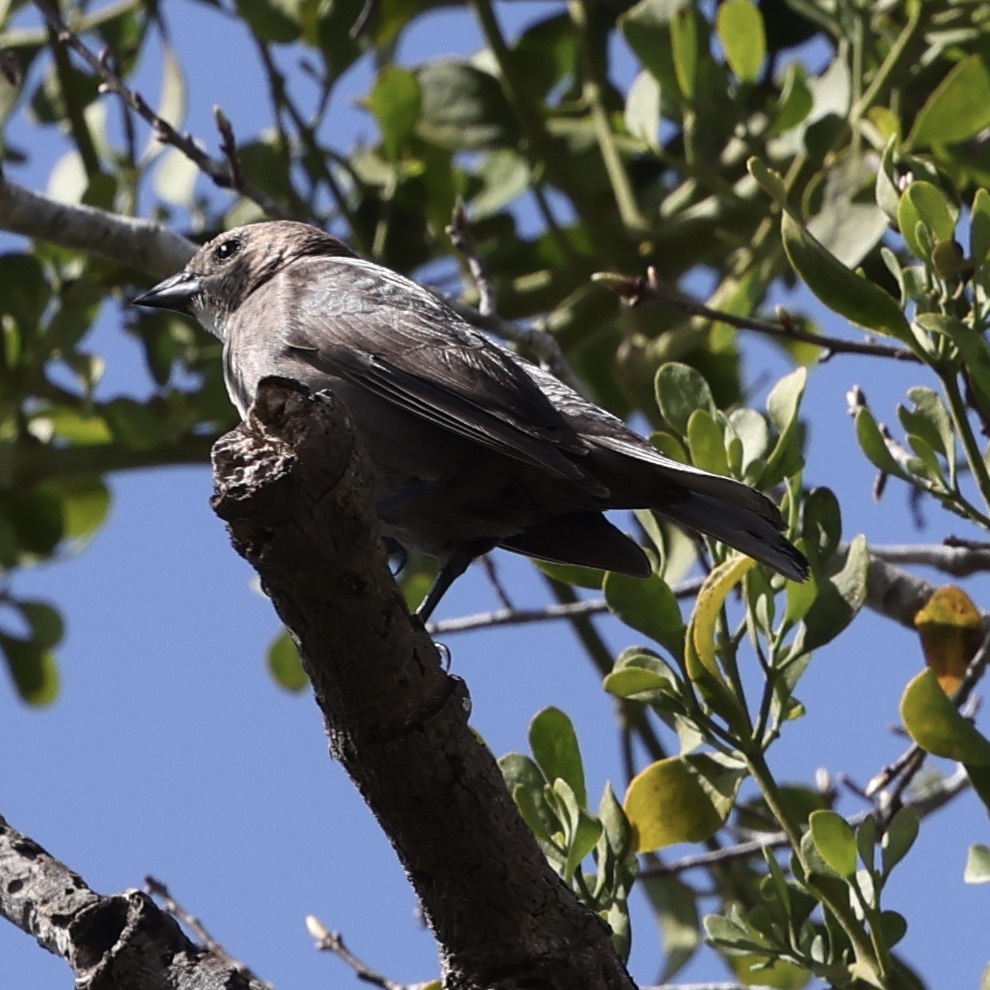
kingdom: Animalia
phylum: Chordata
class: Aves
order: Passeriformes
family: Icteridae
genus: Molothrus
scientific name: Molothrus ater
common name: Brown-headed cowbird
